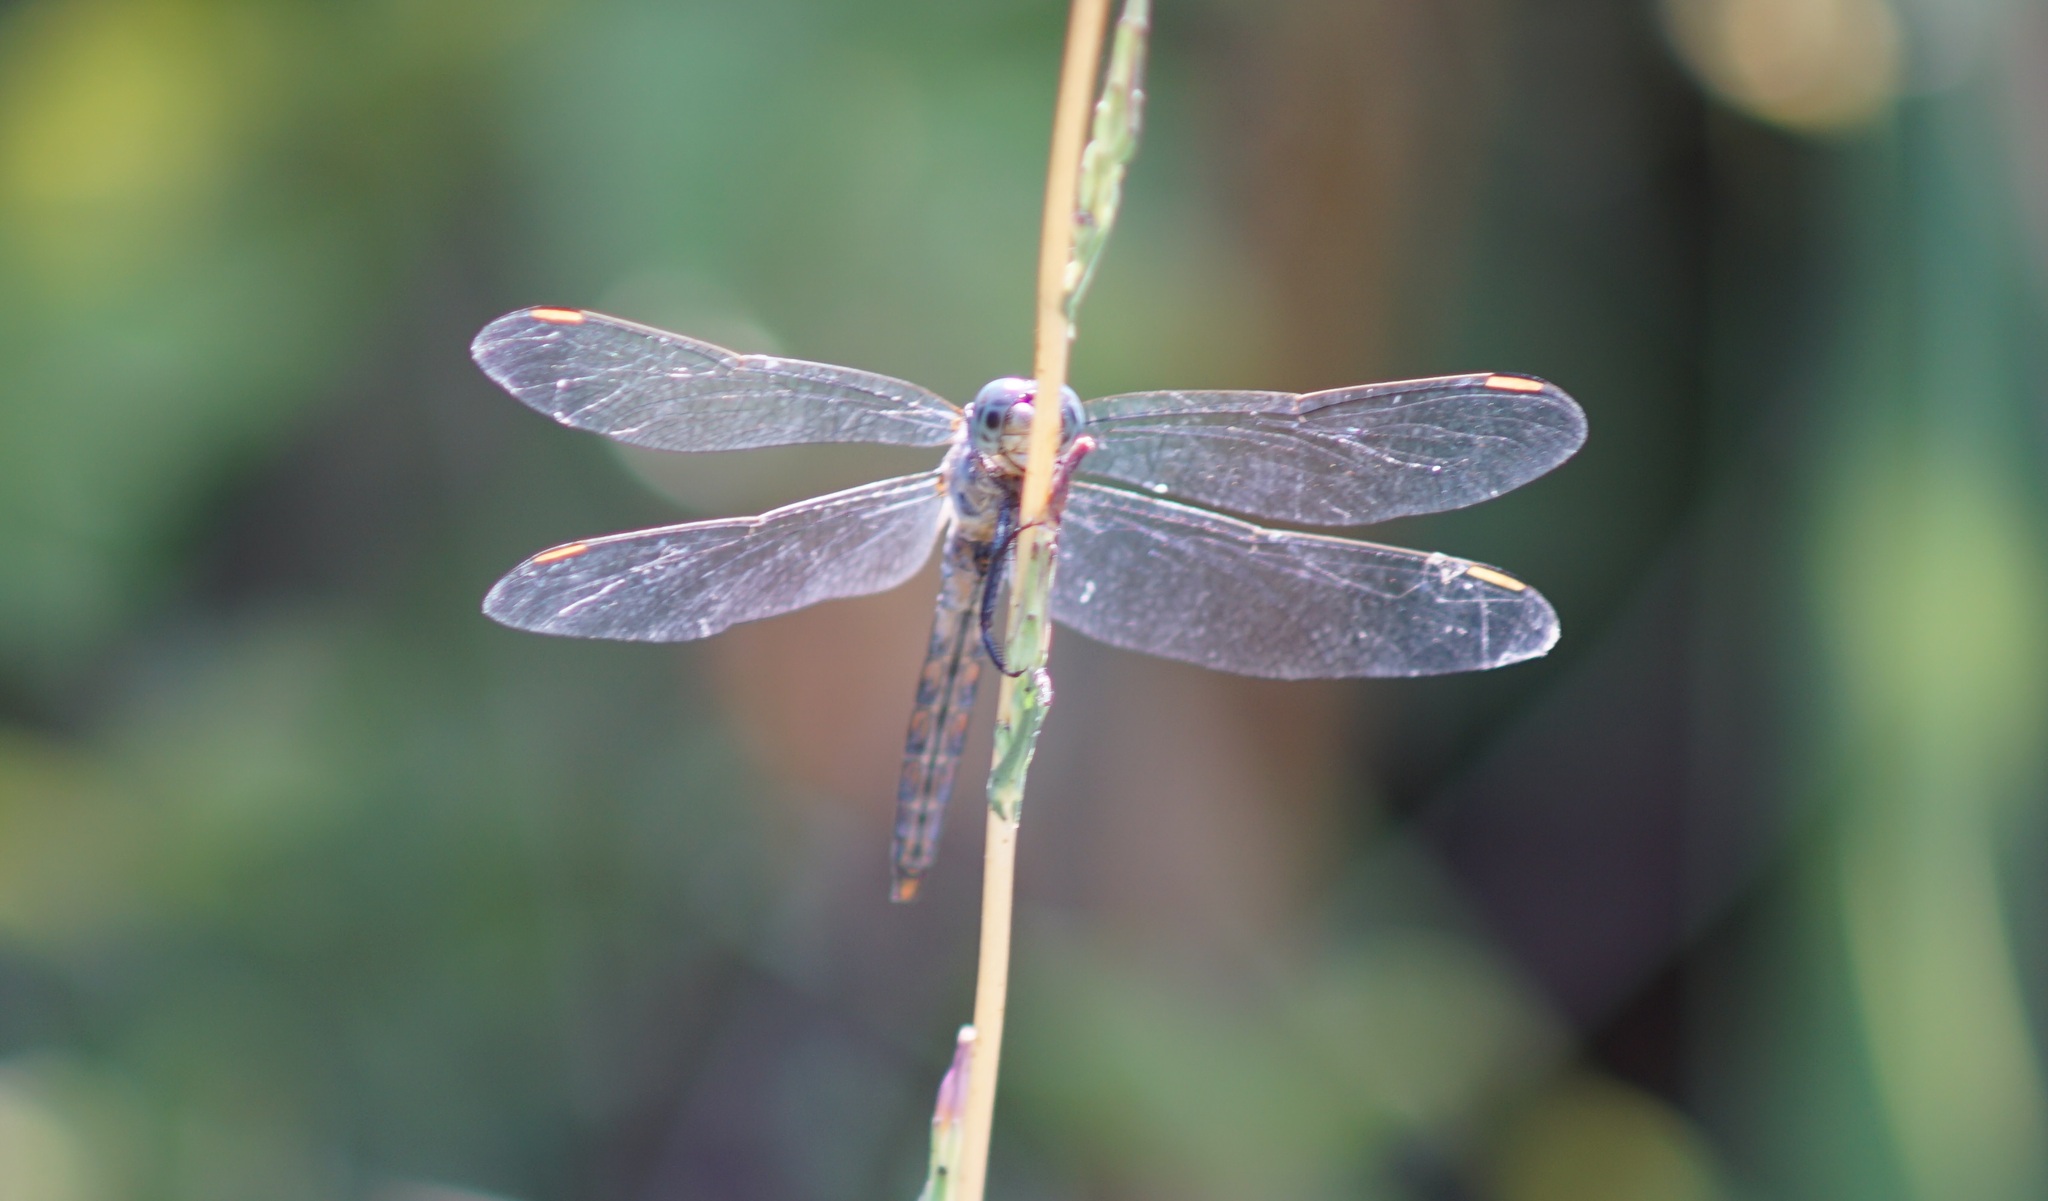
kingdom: Animalia
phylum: Arthropoda
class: Insecta
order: Odonata
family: Libellulidae
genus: Orthetrum
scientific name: Orthetrum coerulescens
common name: Keeled skimmer
